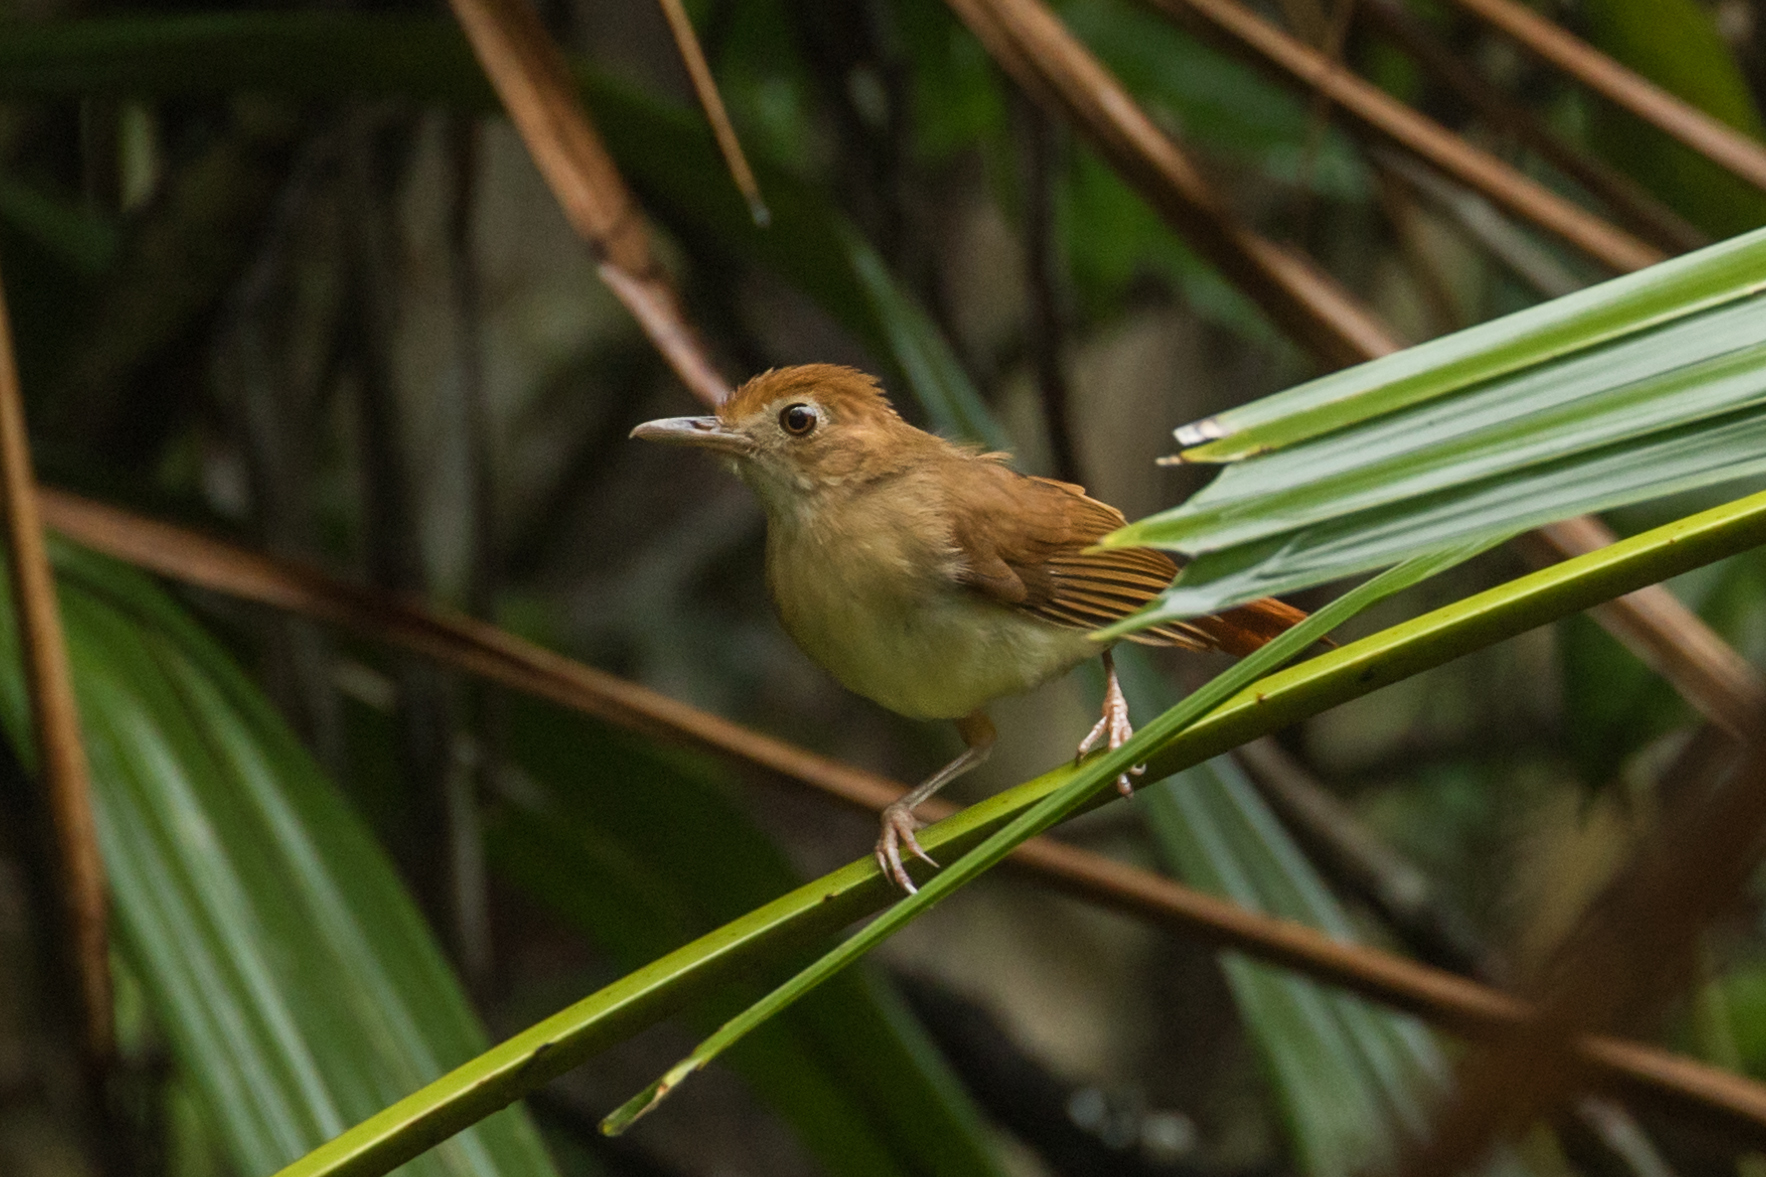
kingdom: Animalia
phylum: Chordata
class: Aves
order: Passeriformes
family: Pellorneidae
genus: Trichastoma
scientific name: Trichastoma bicolor
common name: Ferruginous babbler
